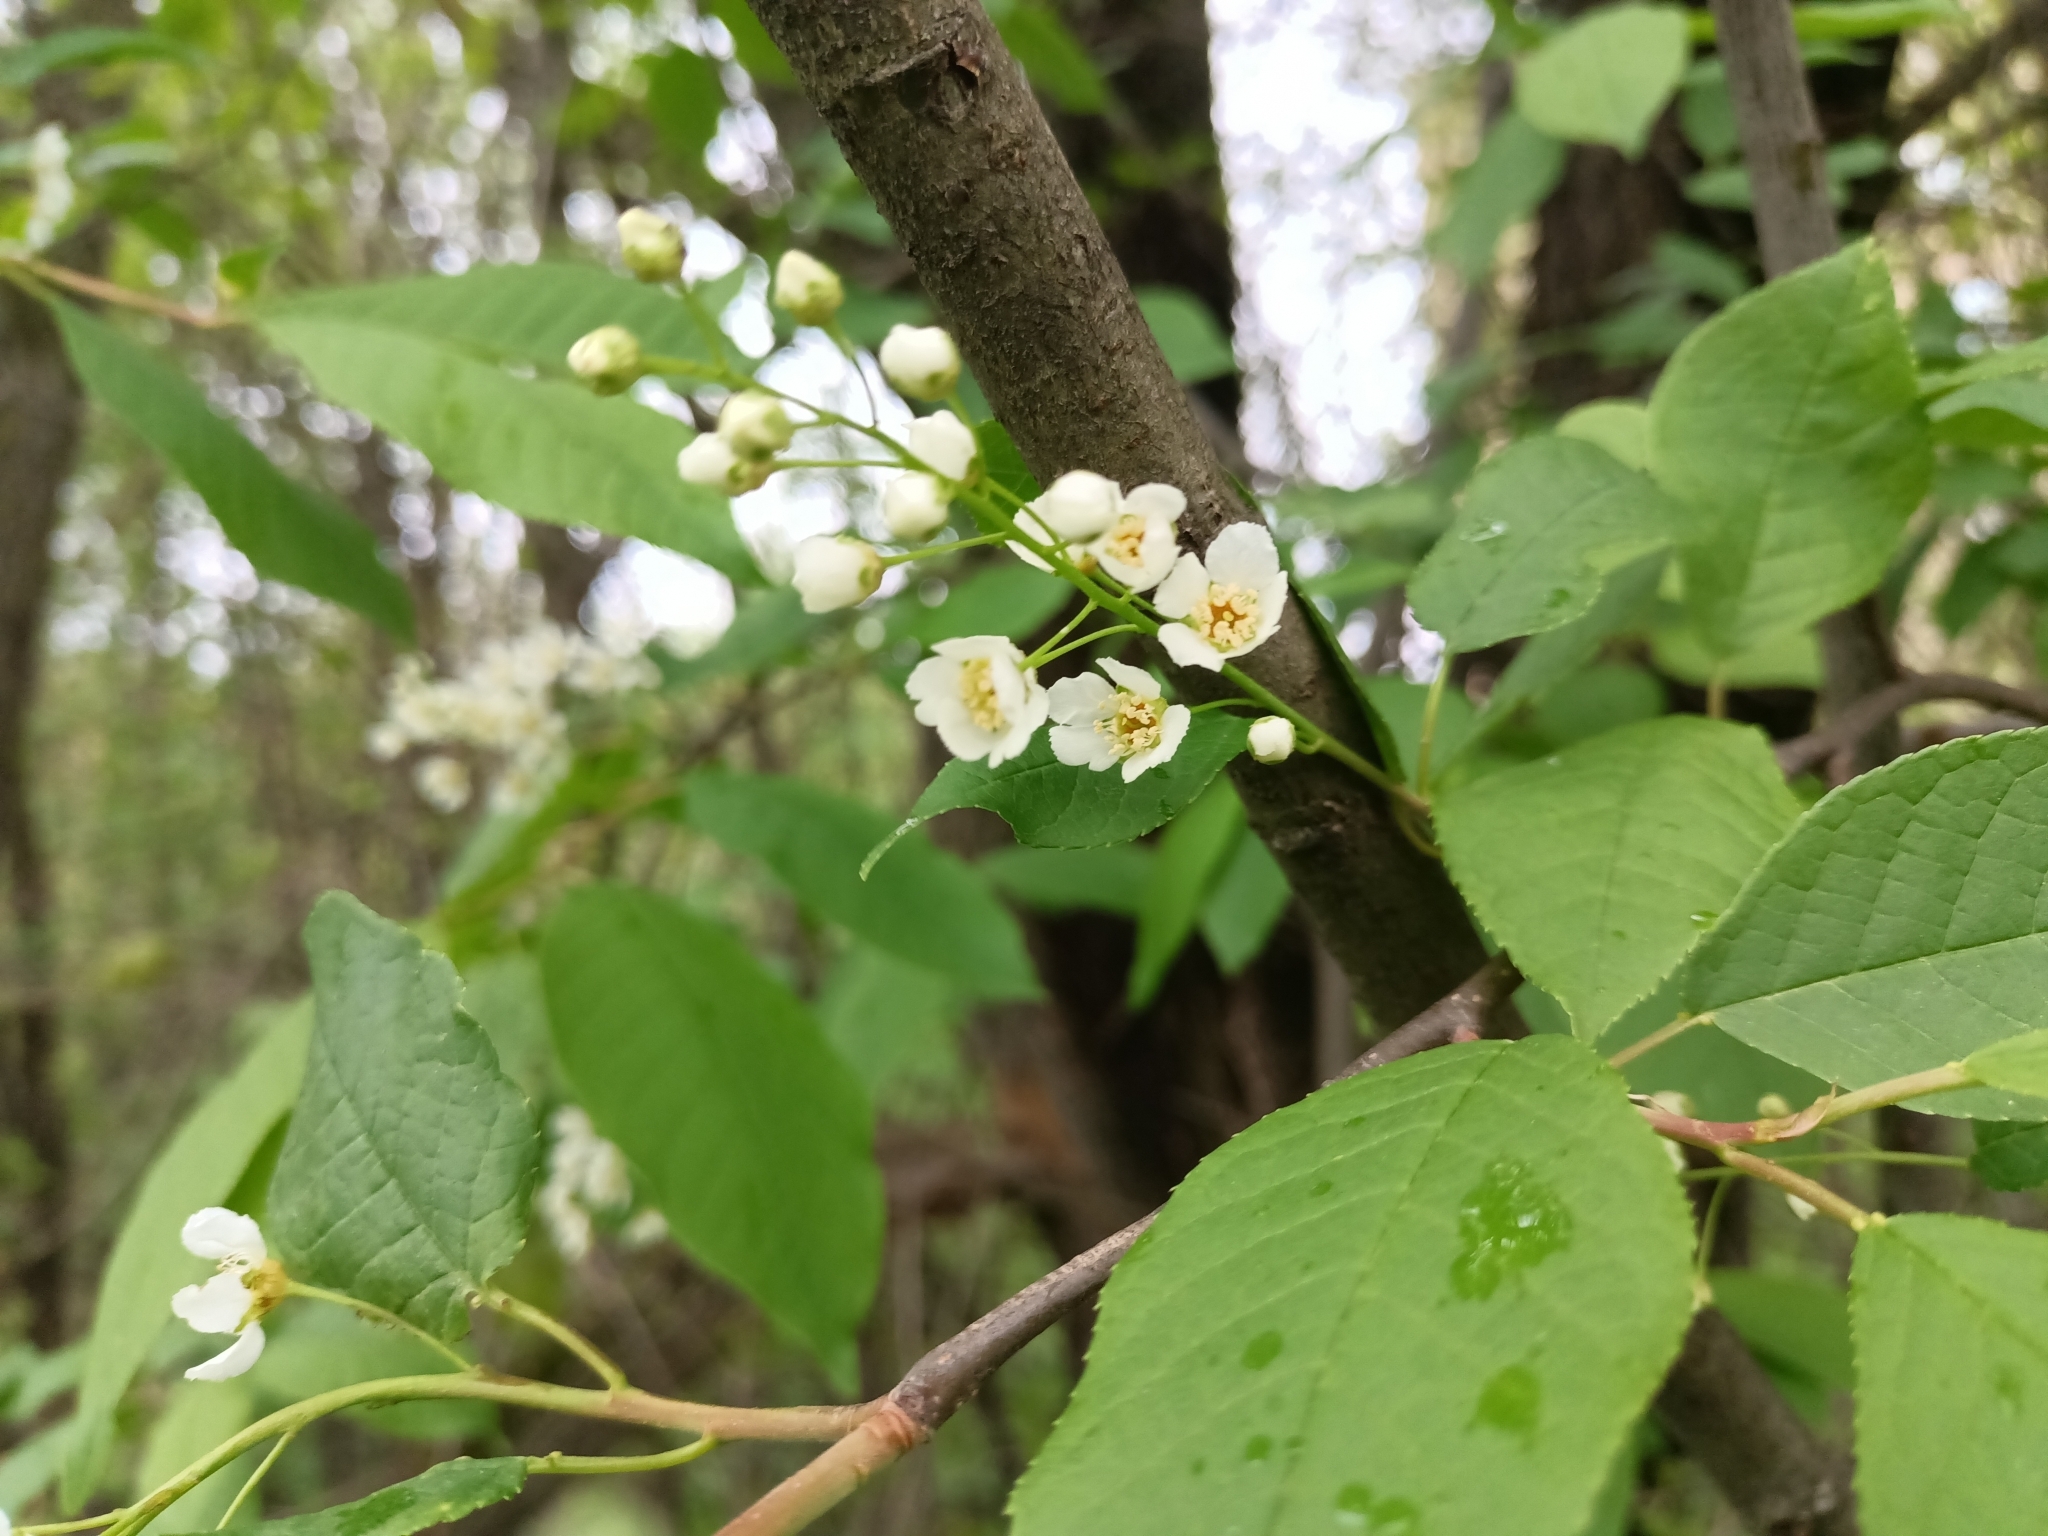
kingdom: Plantae
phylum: Tracheophyta
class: Magnoliopsida
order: Rosales
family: Rosaceae
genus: Prunus
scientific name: Prunus padus
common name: Bird cherry
